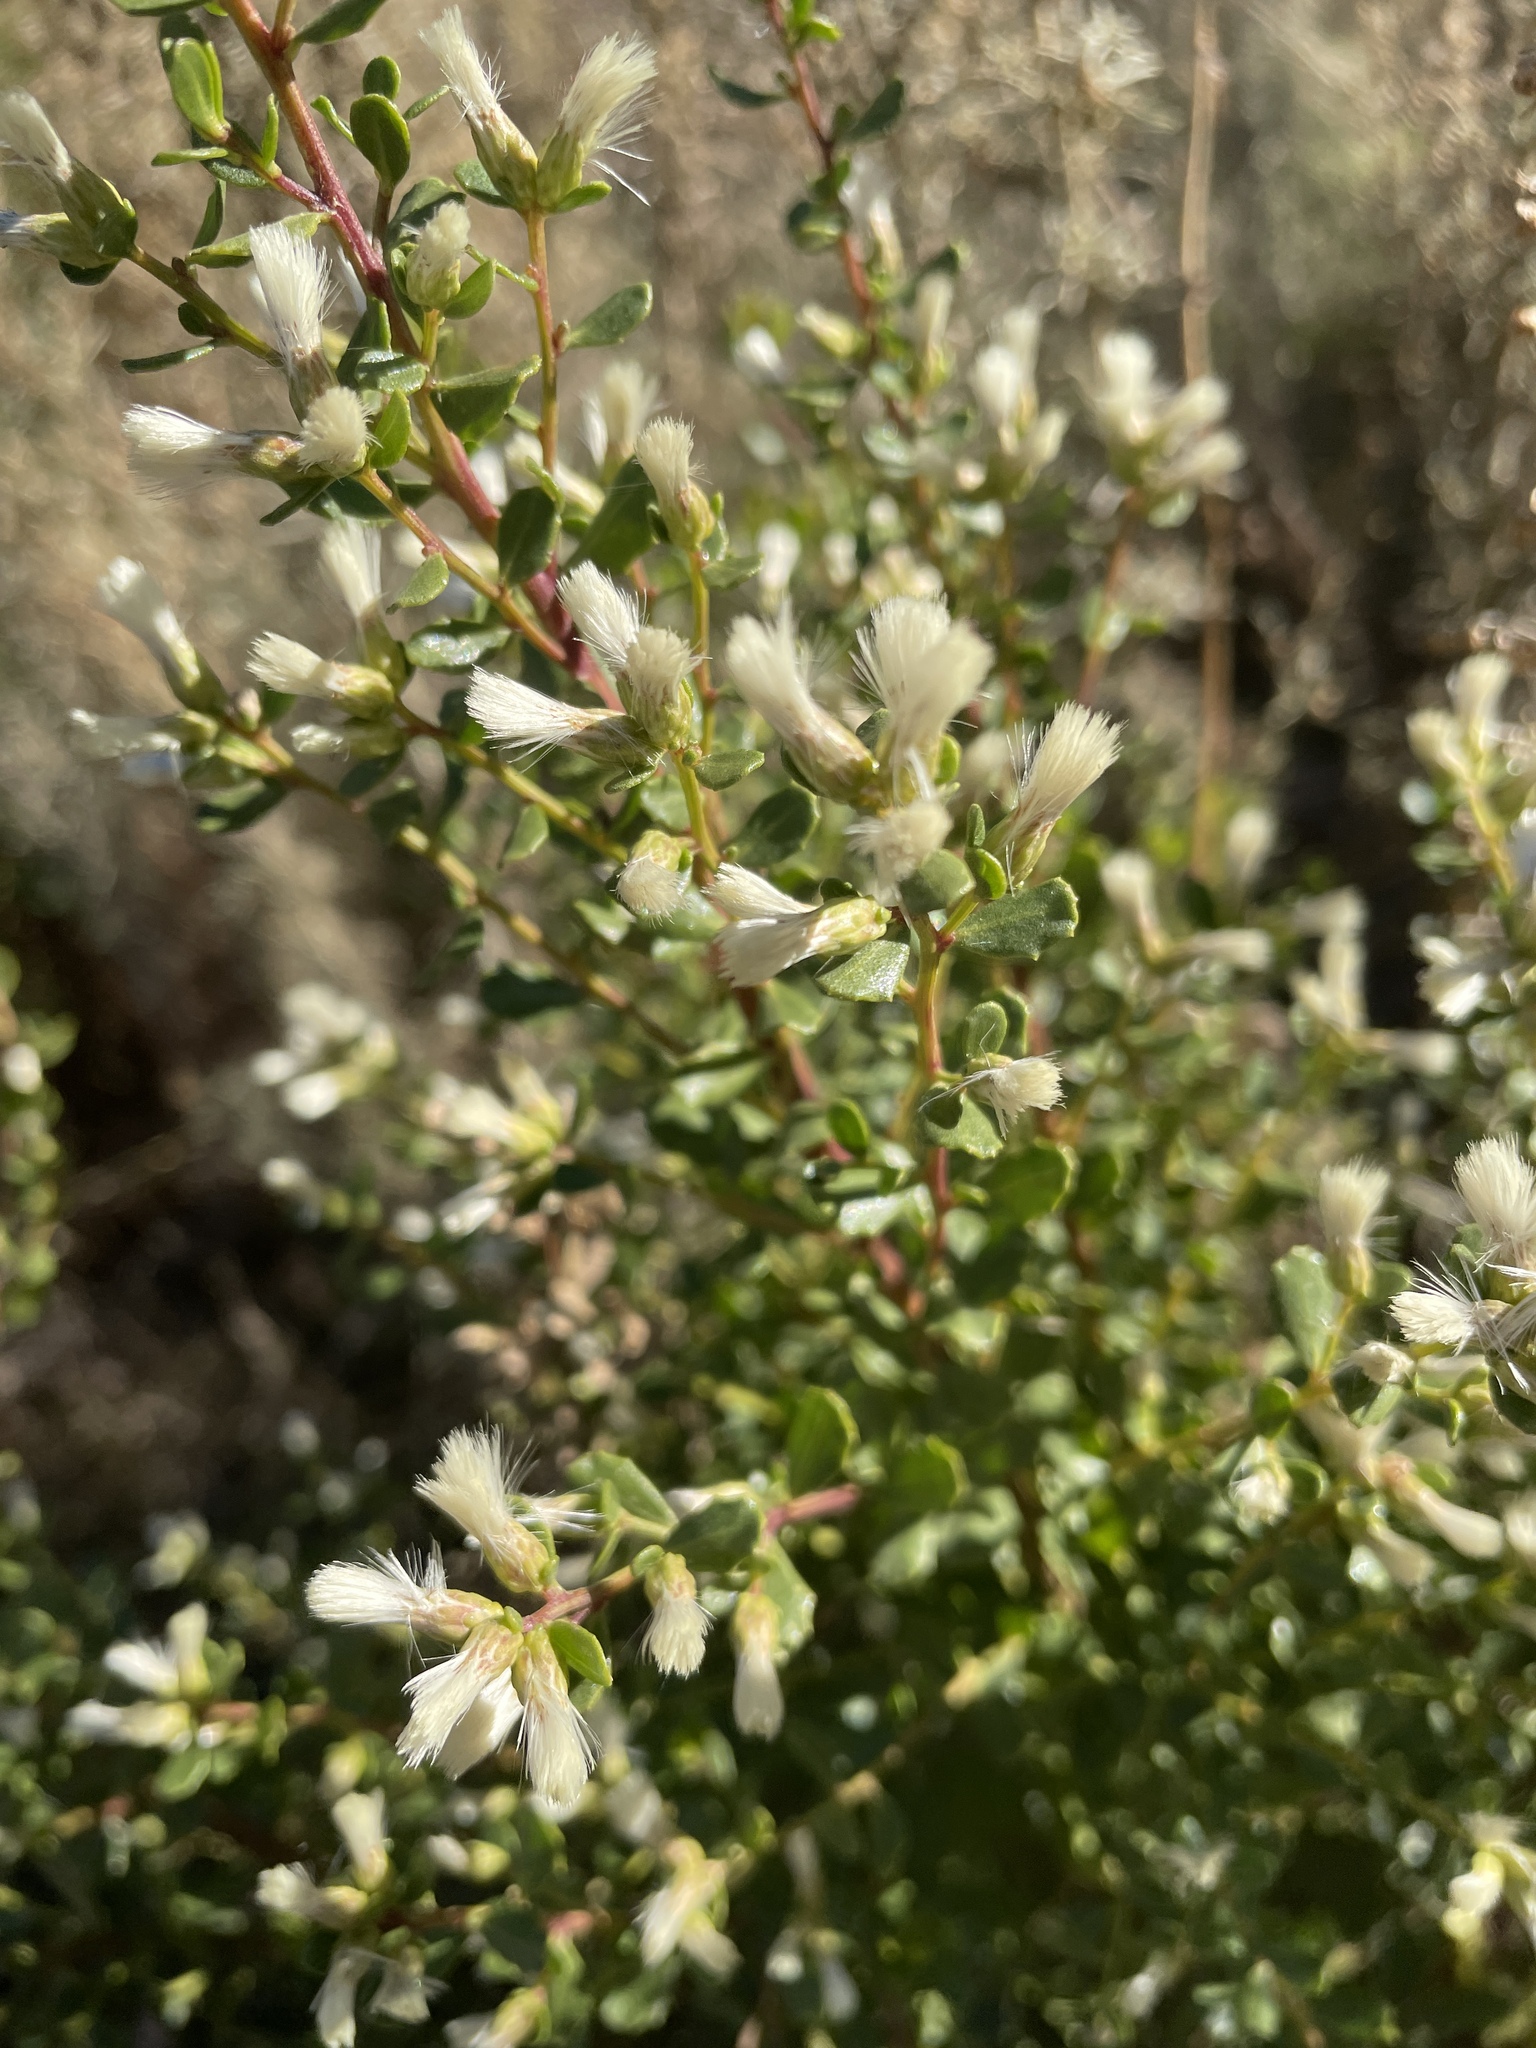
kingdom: Plantae
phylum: Tracheophyta
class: Magnoliopsida
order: Asterales
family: Asteraceae
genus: Baccharis
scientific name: Baccharis pilularis
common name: Coyotebrush
